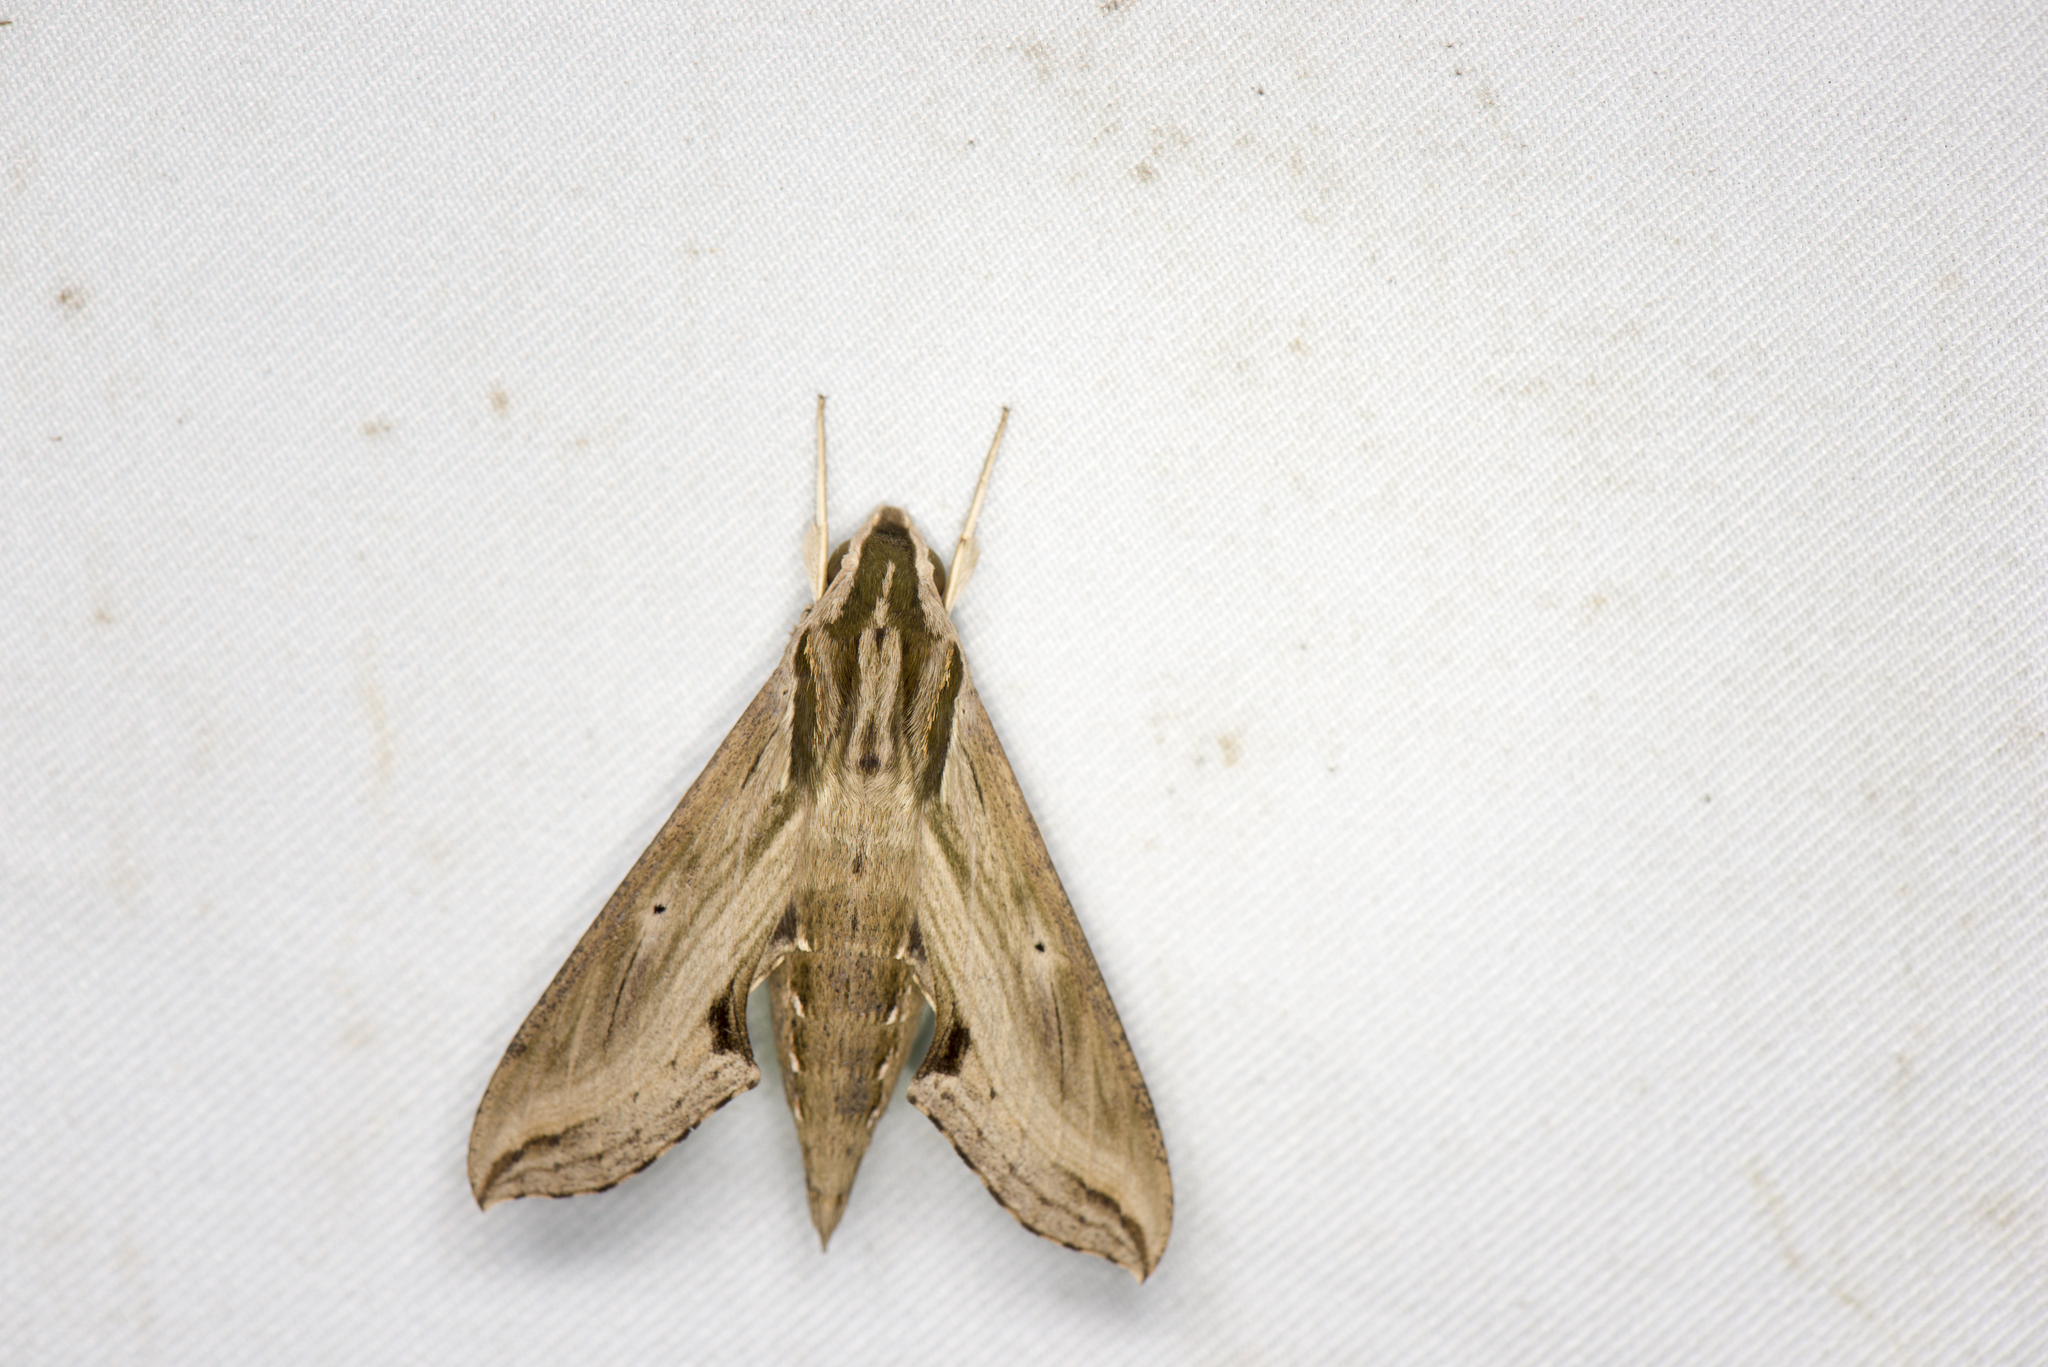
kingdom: Animalia
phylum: Arthropoda
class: Insecta
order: Lepidoptera
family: Sphingidae
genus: Hippotion
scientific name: Hippotion velox
